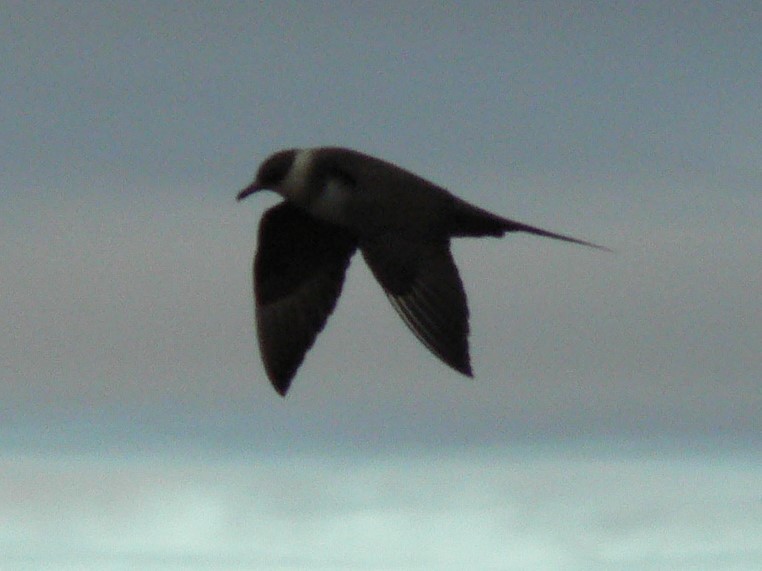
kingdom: Animalia
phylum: Chordata
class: Aves
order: Charadriiformes
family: Stercorariidae
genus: Stercorarius
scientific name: Stercorarius parasiticus
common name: Parasitic jaeger
